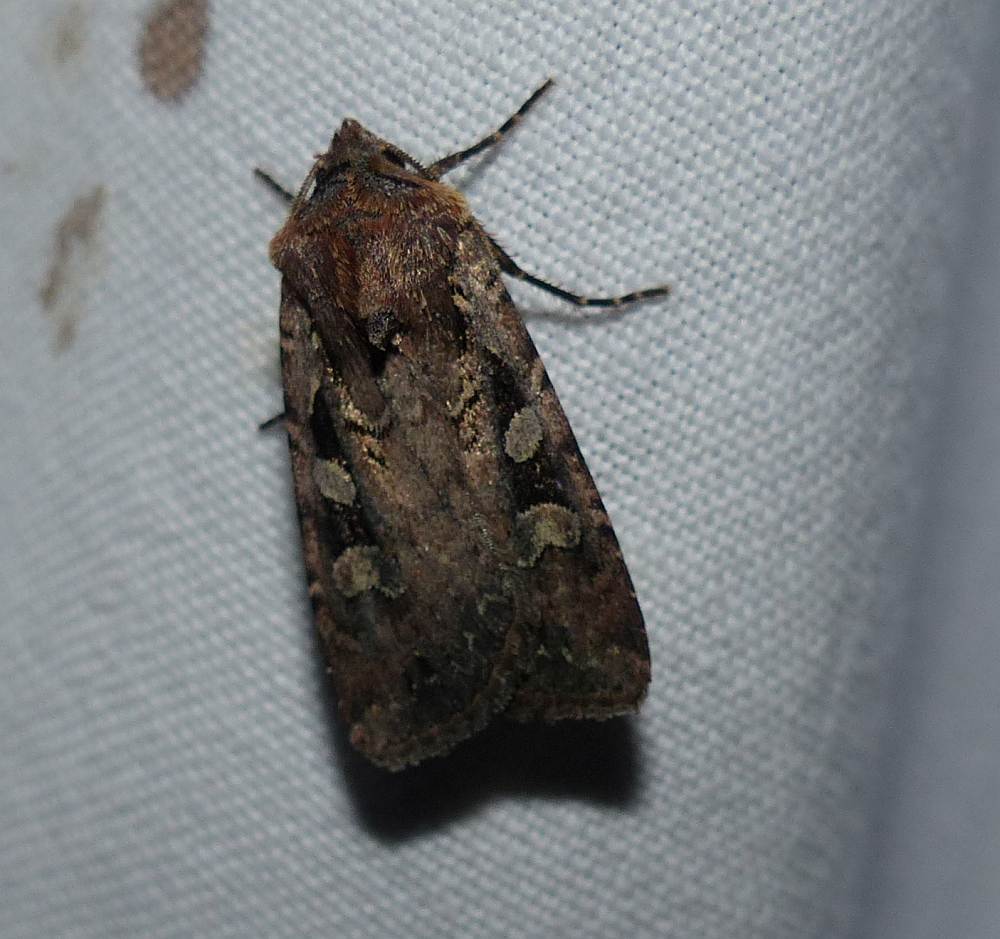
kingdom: Animalia
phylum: Arthropoda
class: Insecta
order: Lepidoptera
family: Noctuidae
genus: Euxoa
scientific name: Euxoa tessellata
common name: Striped cutworm
